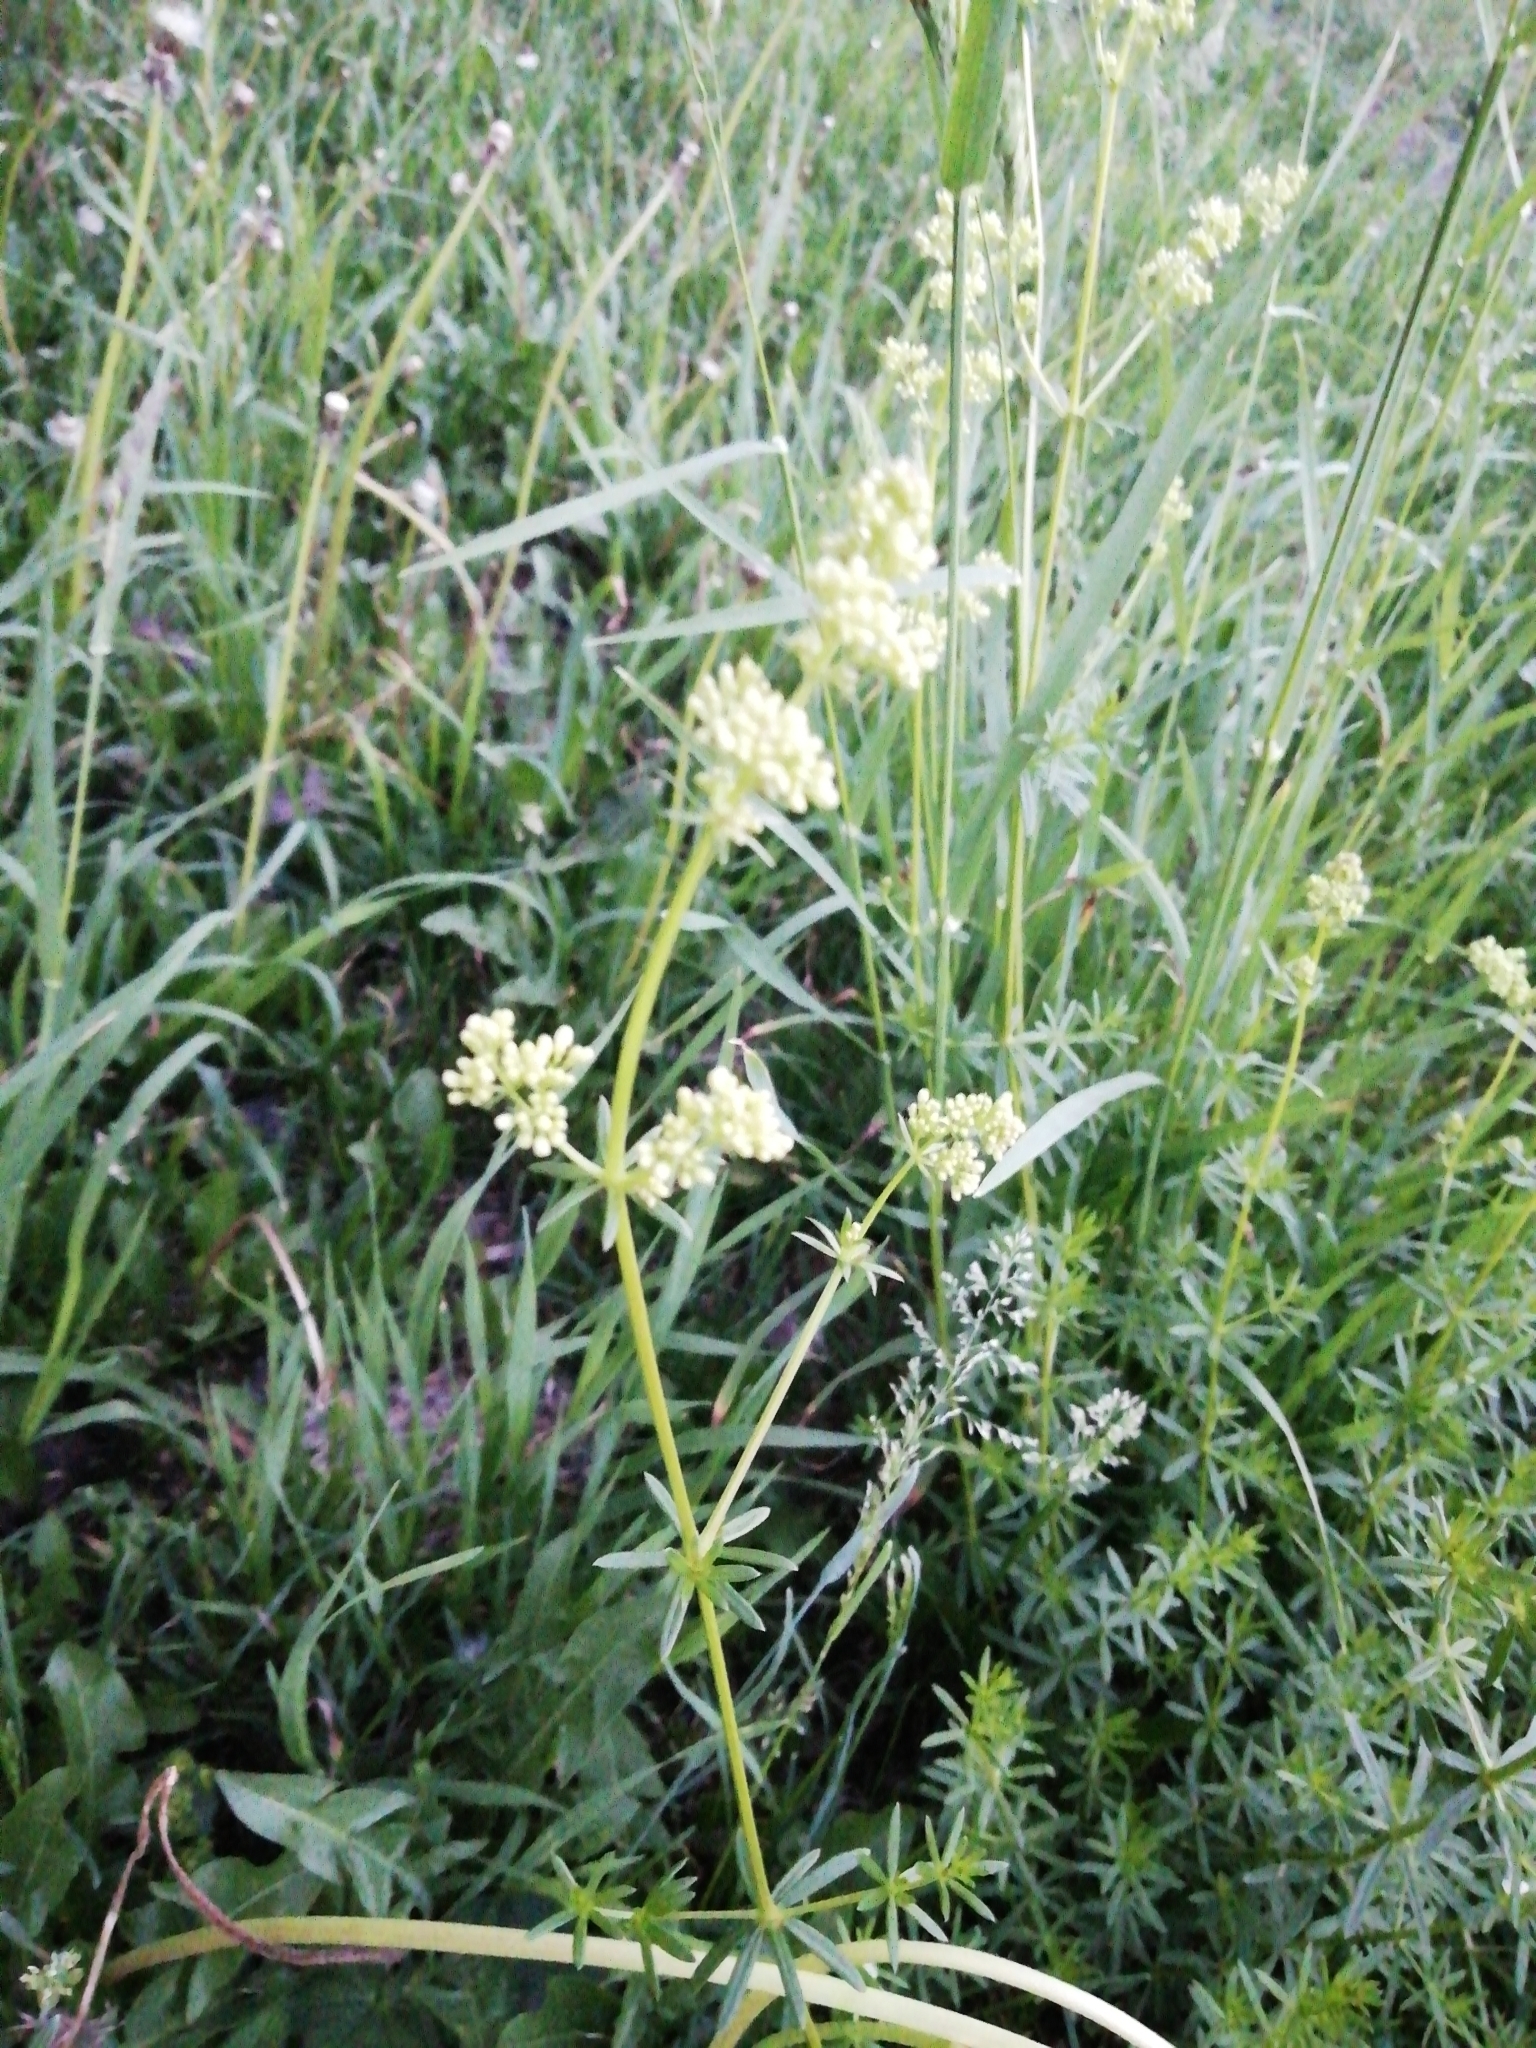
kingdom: Plantae
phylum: Tracheophyta
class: Magnoliopsida
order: Gentianales
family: Rubiaceae
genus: Galium
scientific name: Galium mollugo
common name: Hedge bedstraw
